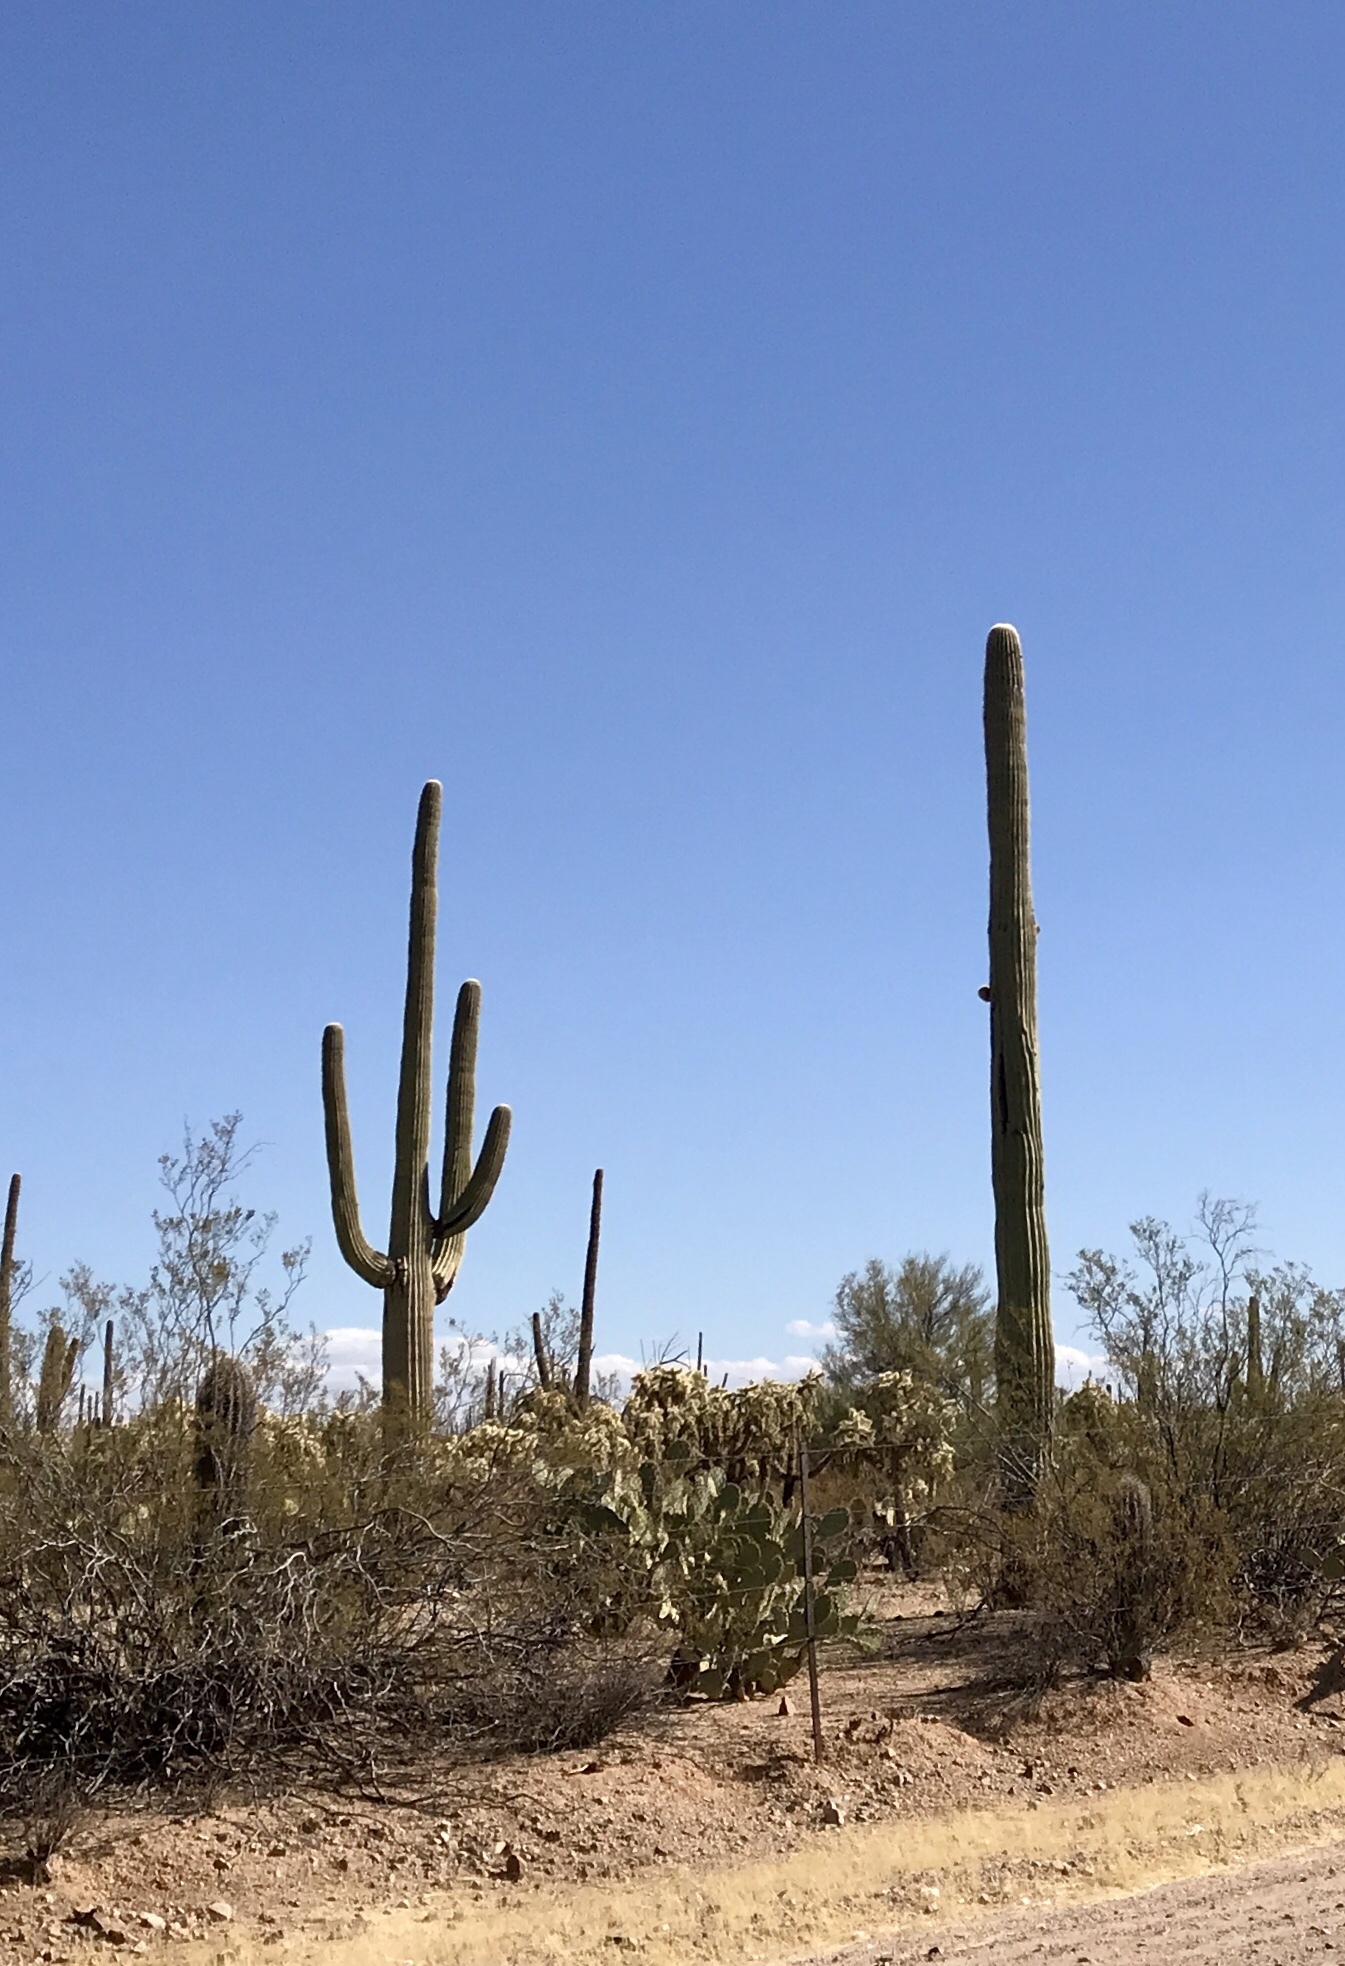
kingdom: Plantae
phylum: Tracheophyta
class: Magnoliopsida
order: Caryophyllales
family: Cactaceae
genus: Carnegiea
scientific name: Carnegiea gigantea
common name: Saguaro
